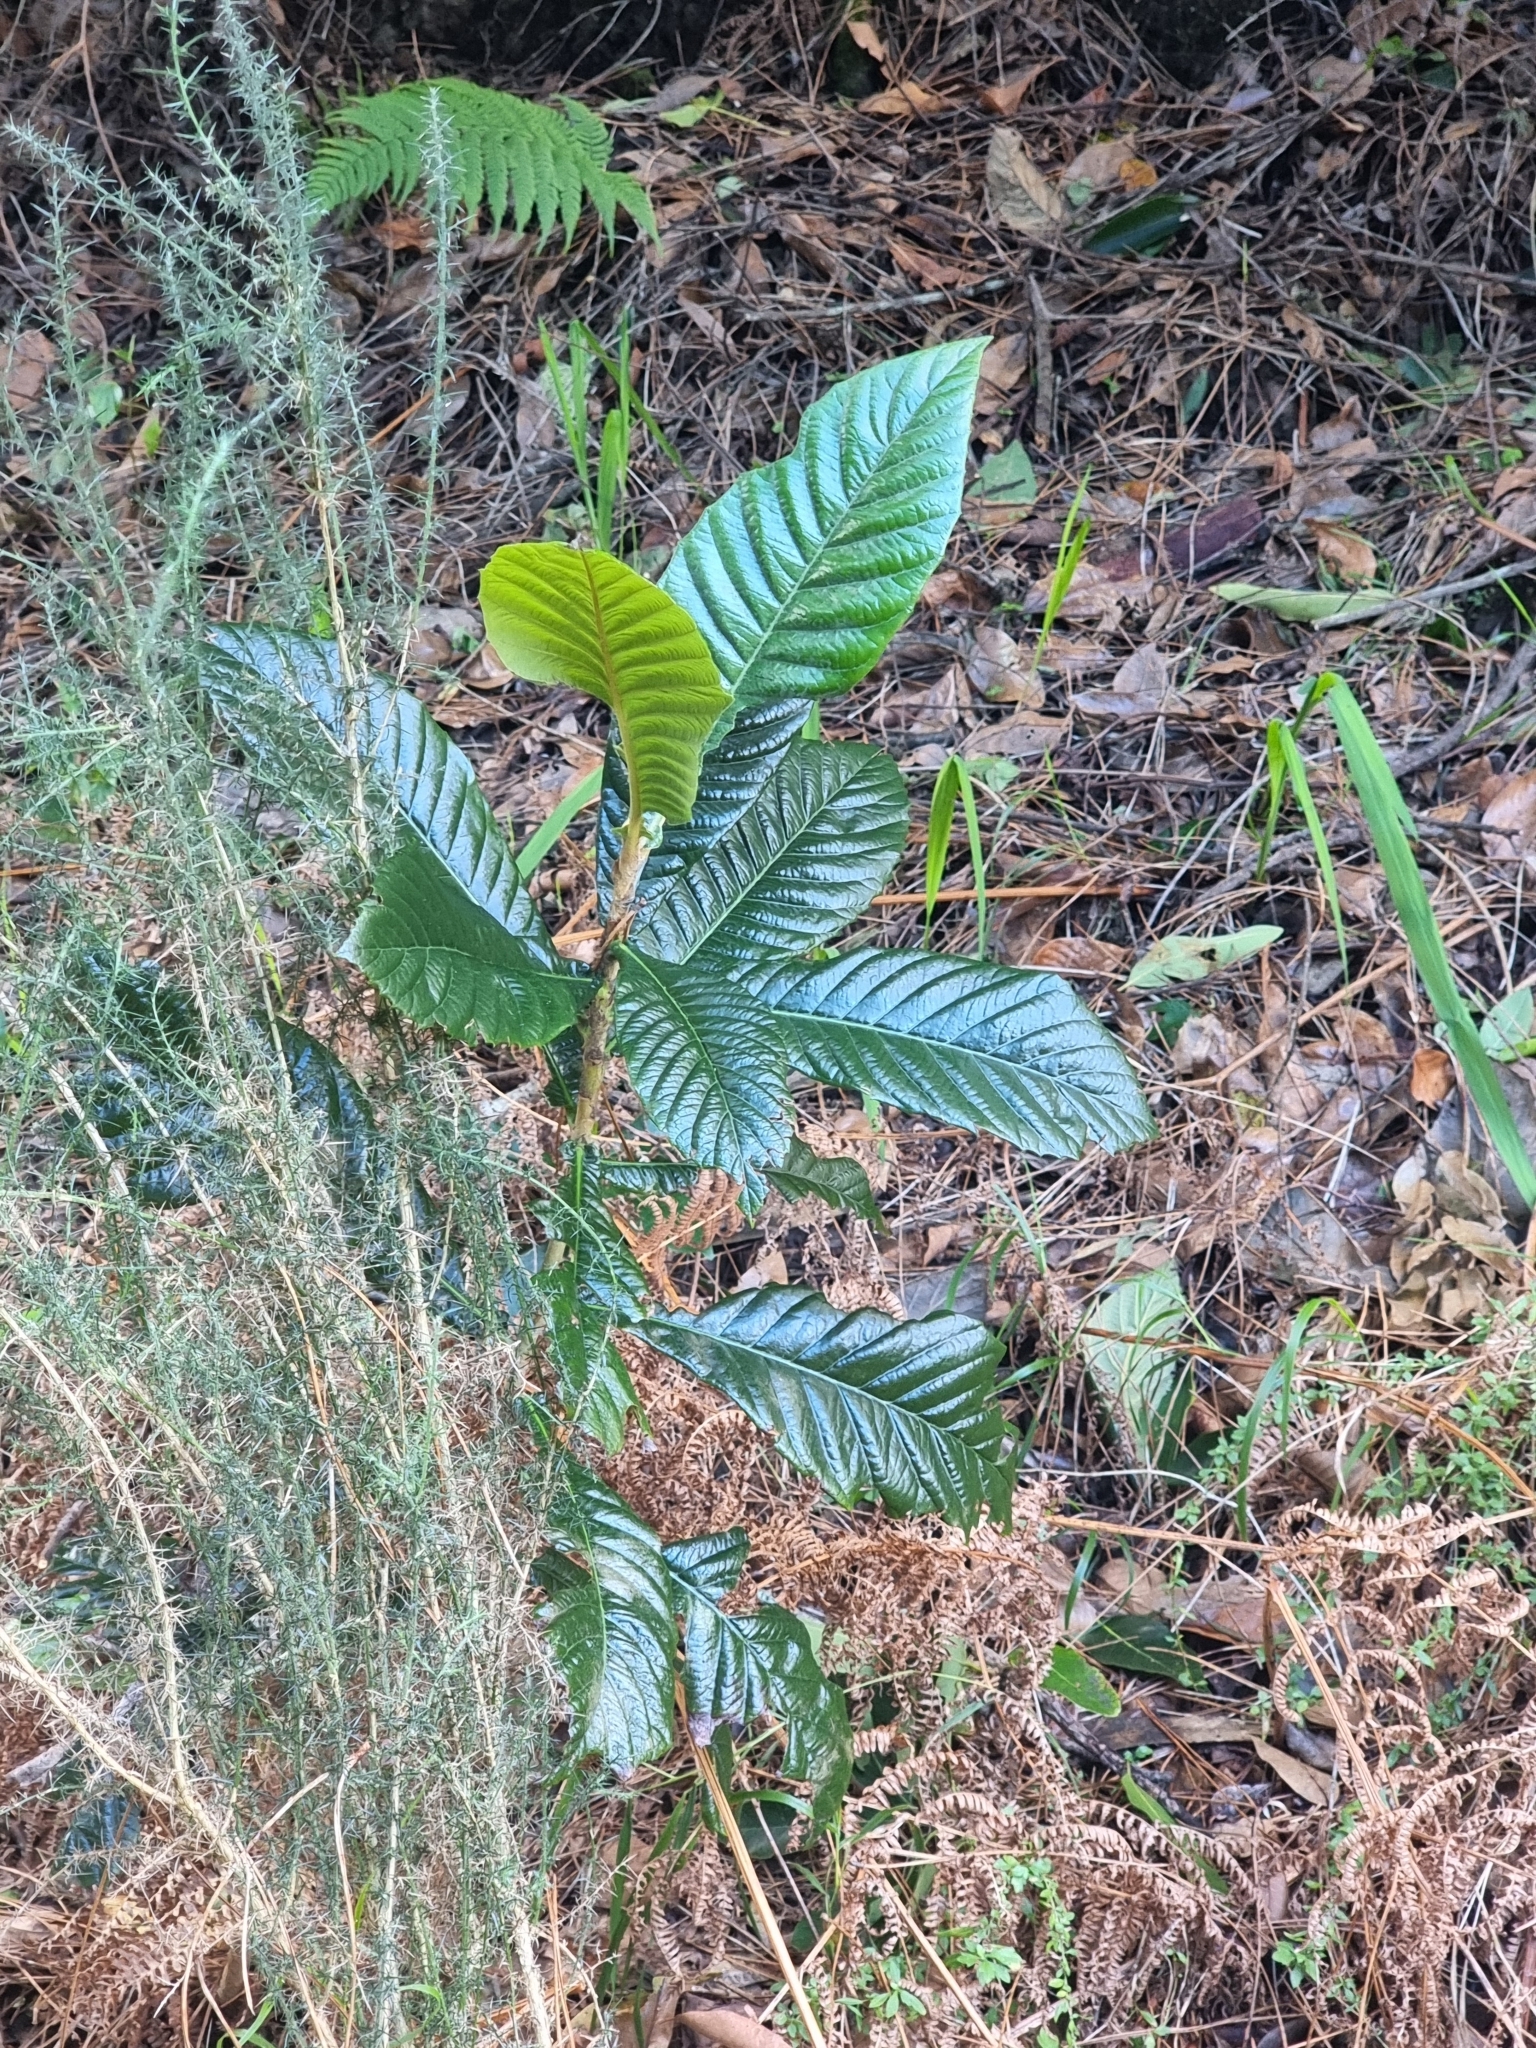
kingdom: Plantae
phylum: Tracheophyta
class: Magnoliopsida
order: Rosales
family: Rosaceae
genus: Rhaphiolepis
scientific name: Rhaphiolepis bibas
